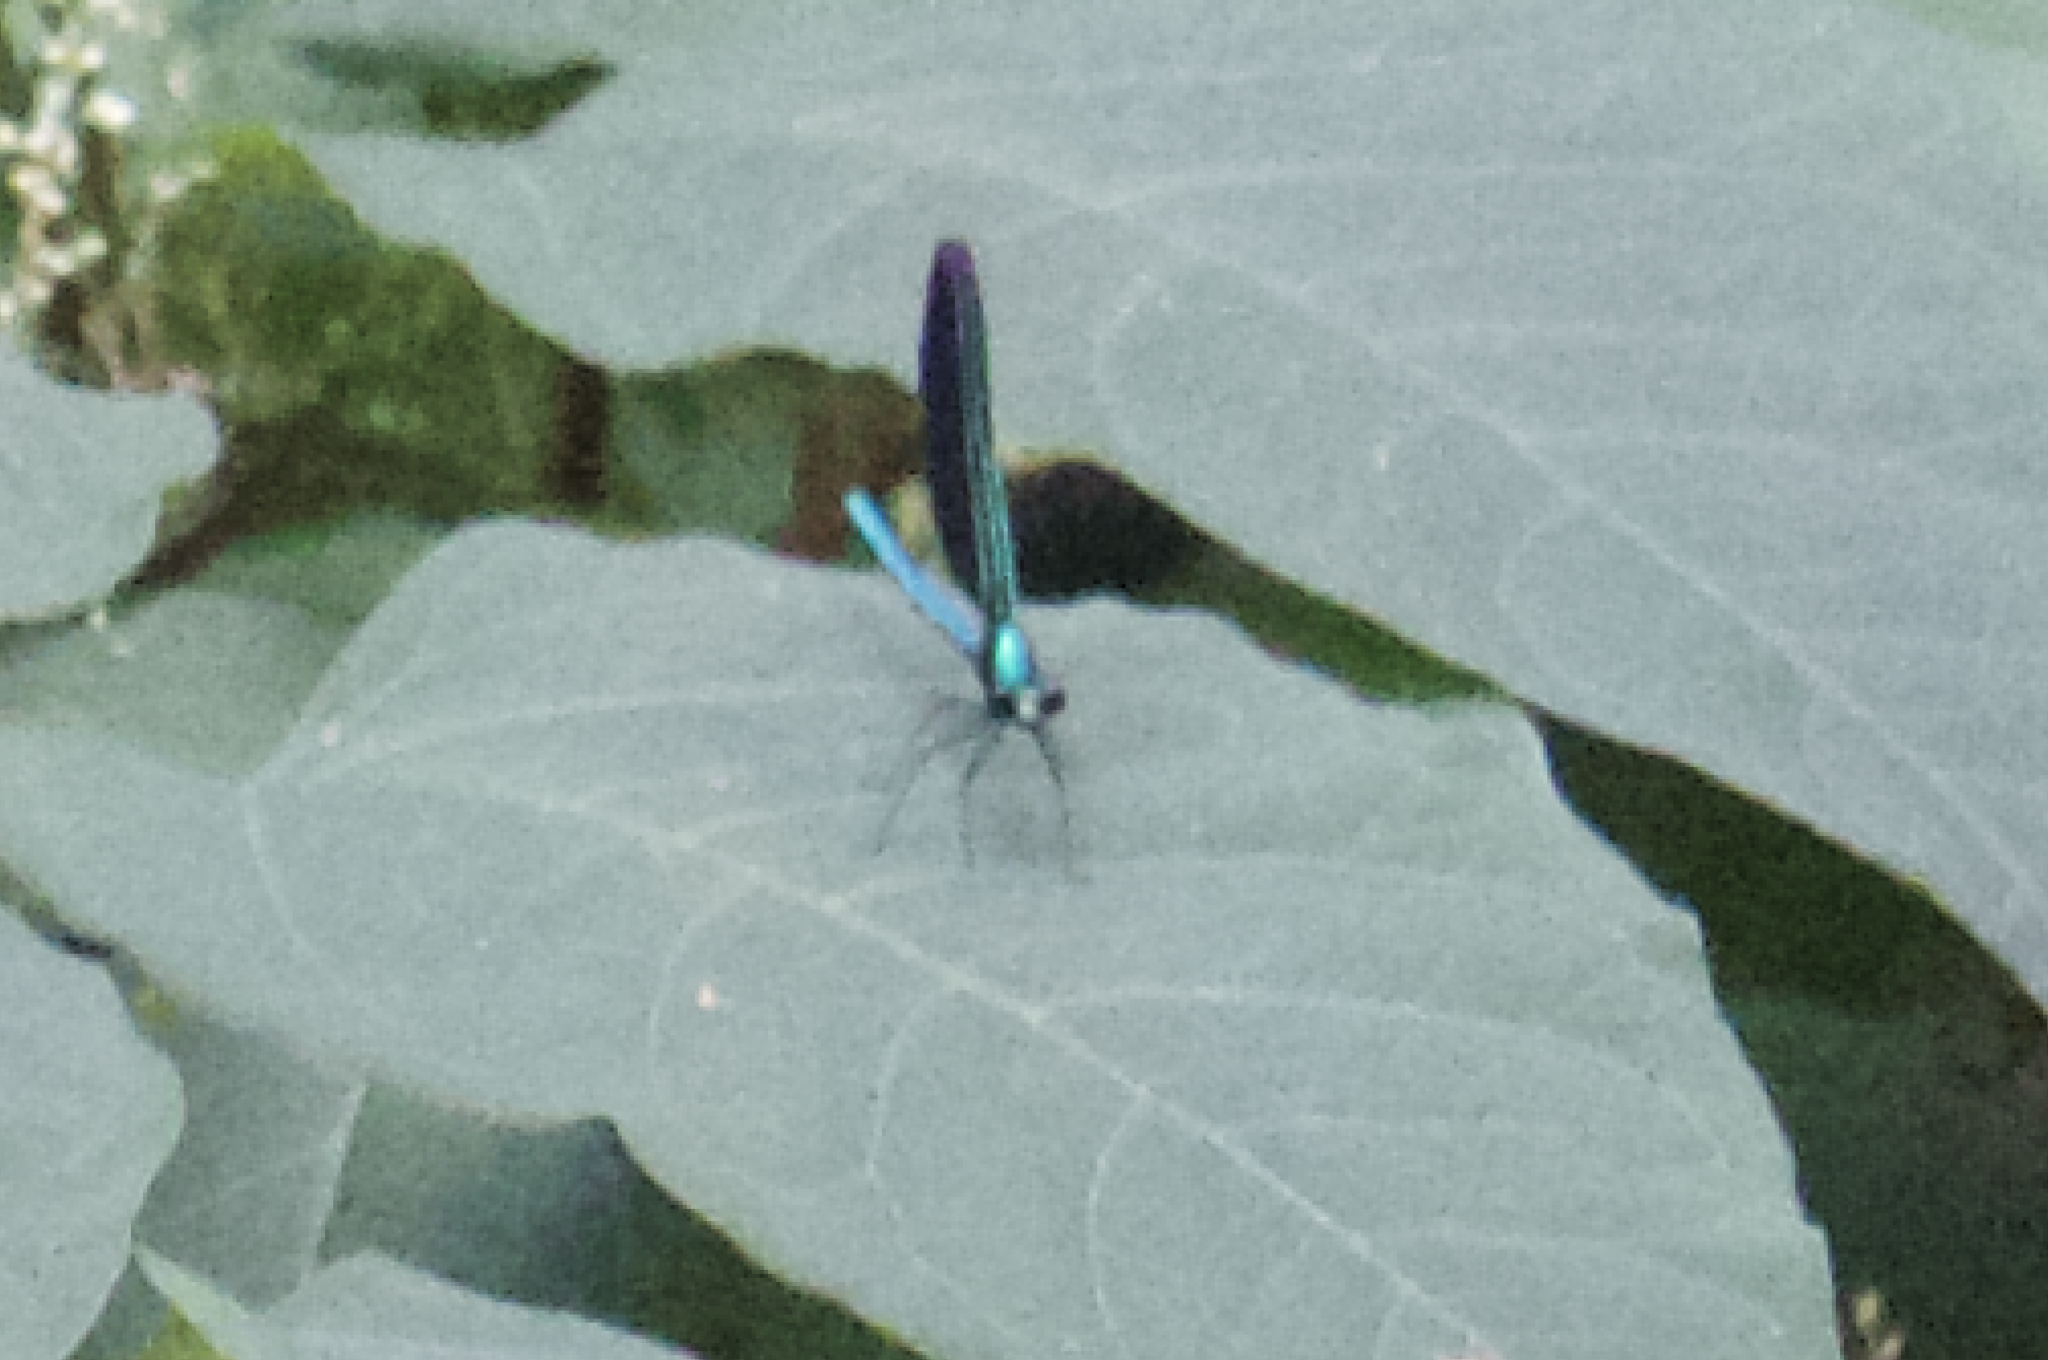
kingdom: Animalia
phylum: Arthropoda
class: Insecta
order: Odonata
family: Calopterygidae
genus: Calopteryx
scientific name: Calopteryx maculata
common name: Ebony jewelwing
